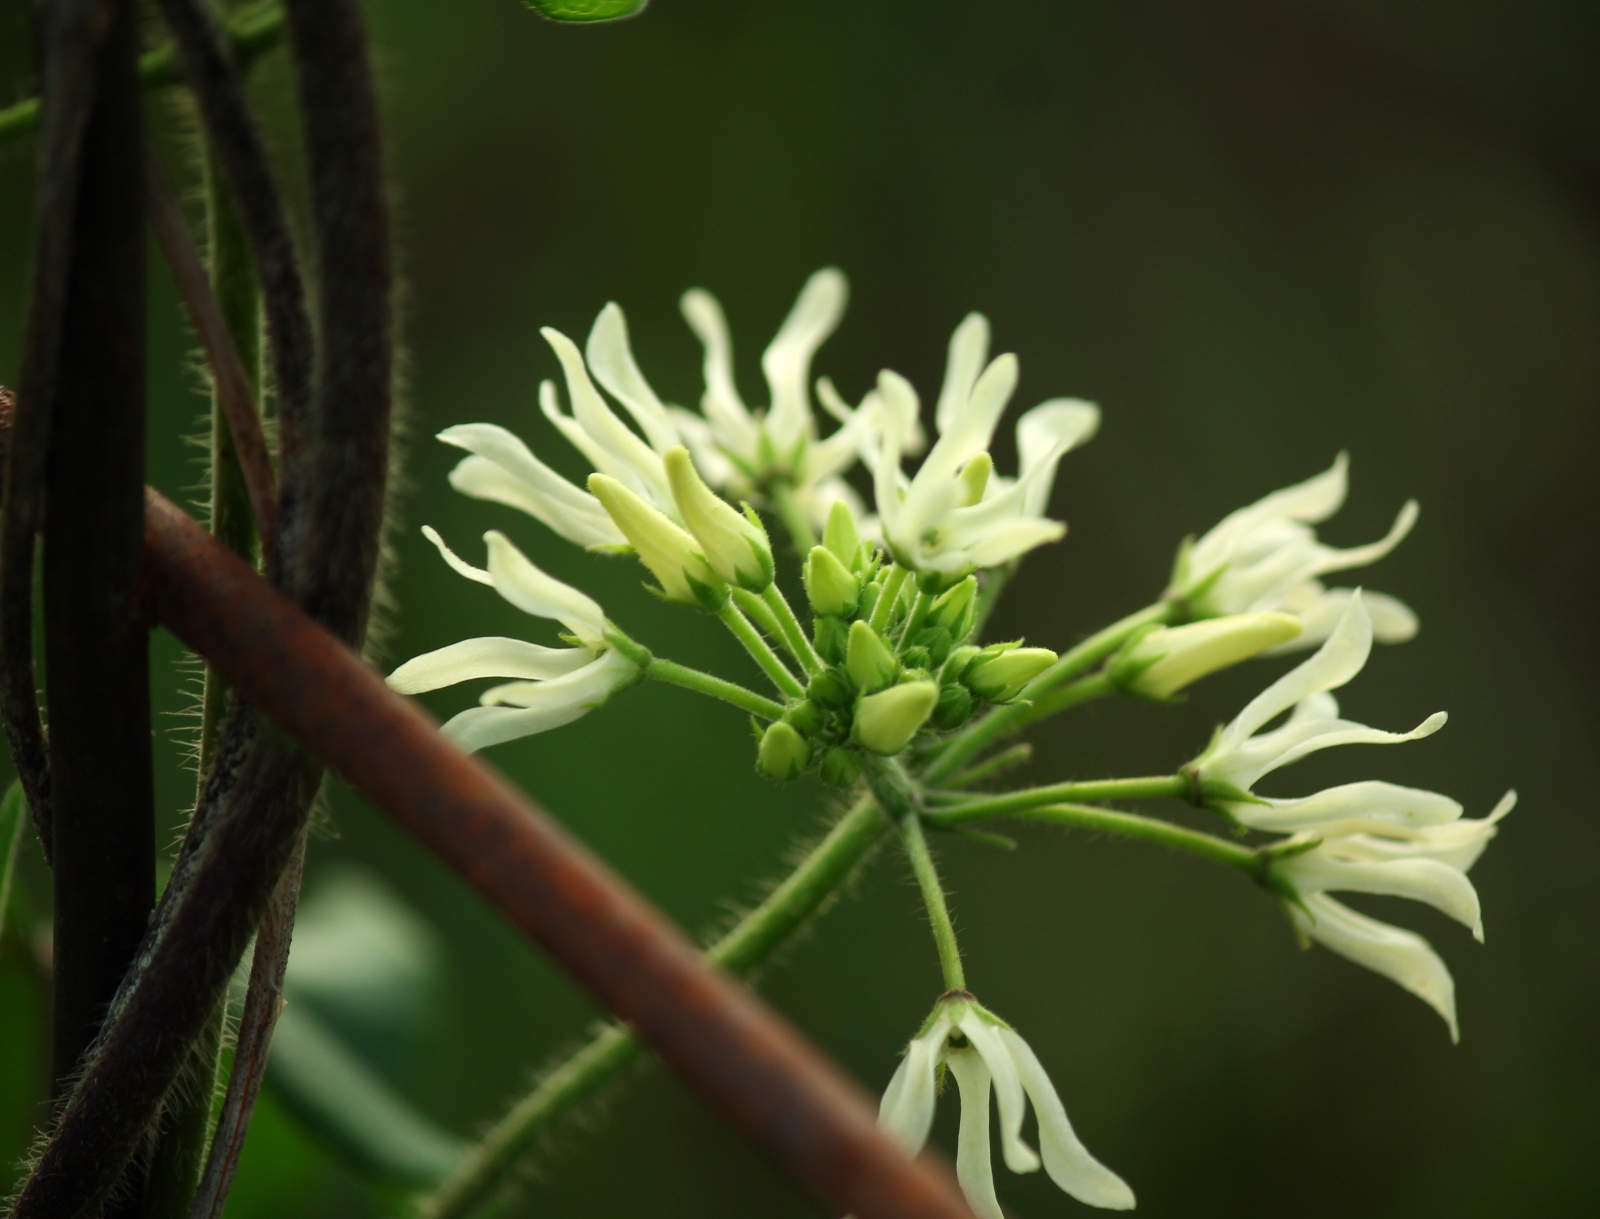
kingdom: Plantae
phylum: Tracheophyta
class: Magnoliopsida
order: Gentianales
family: Apocynaceae
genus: Matelea
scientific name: Matelea baldwyniana
